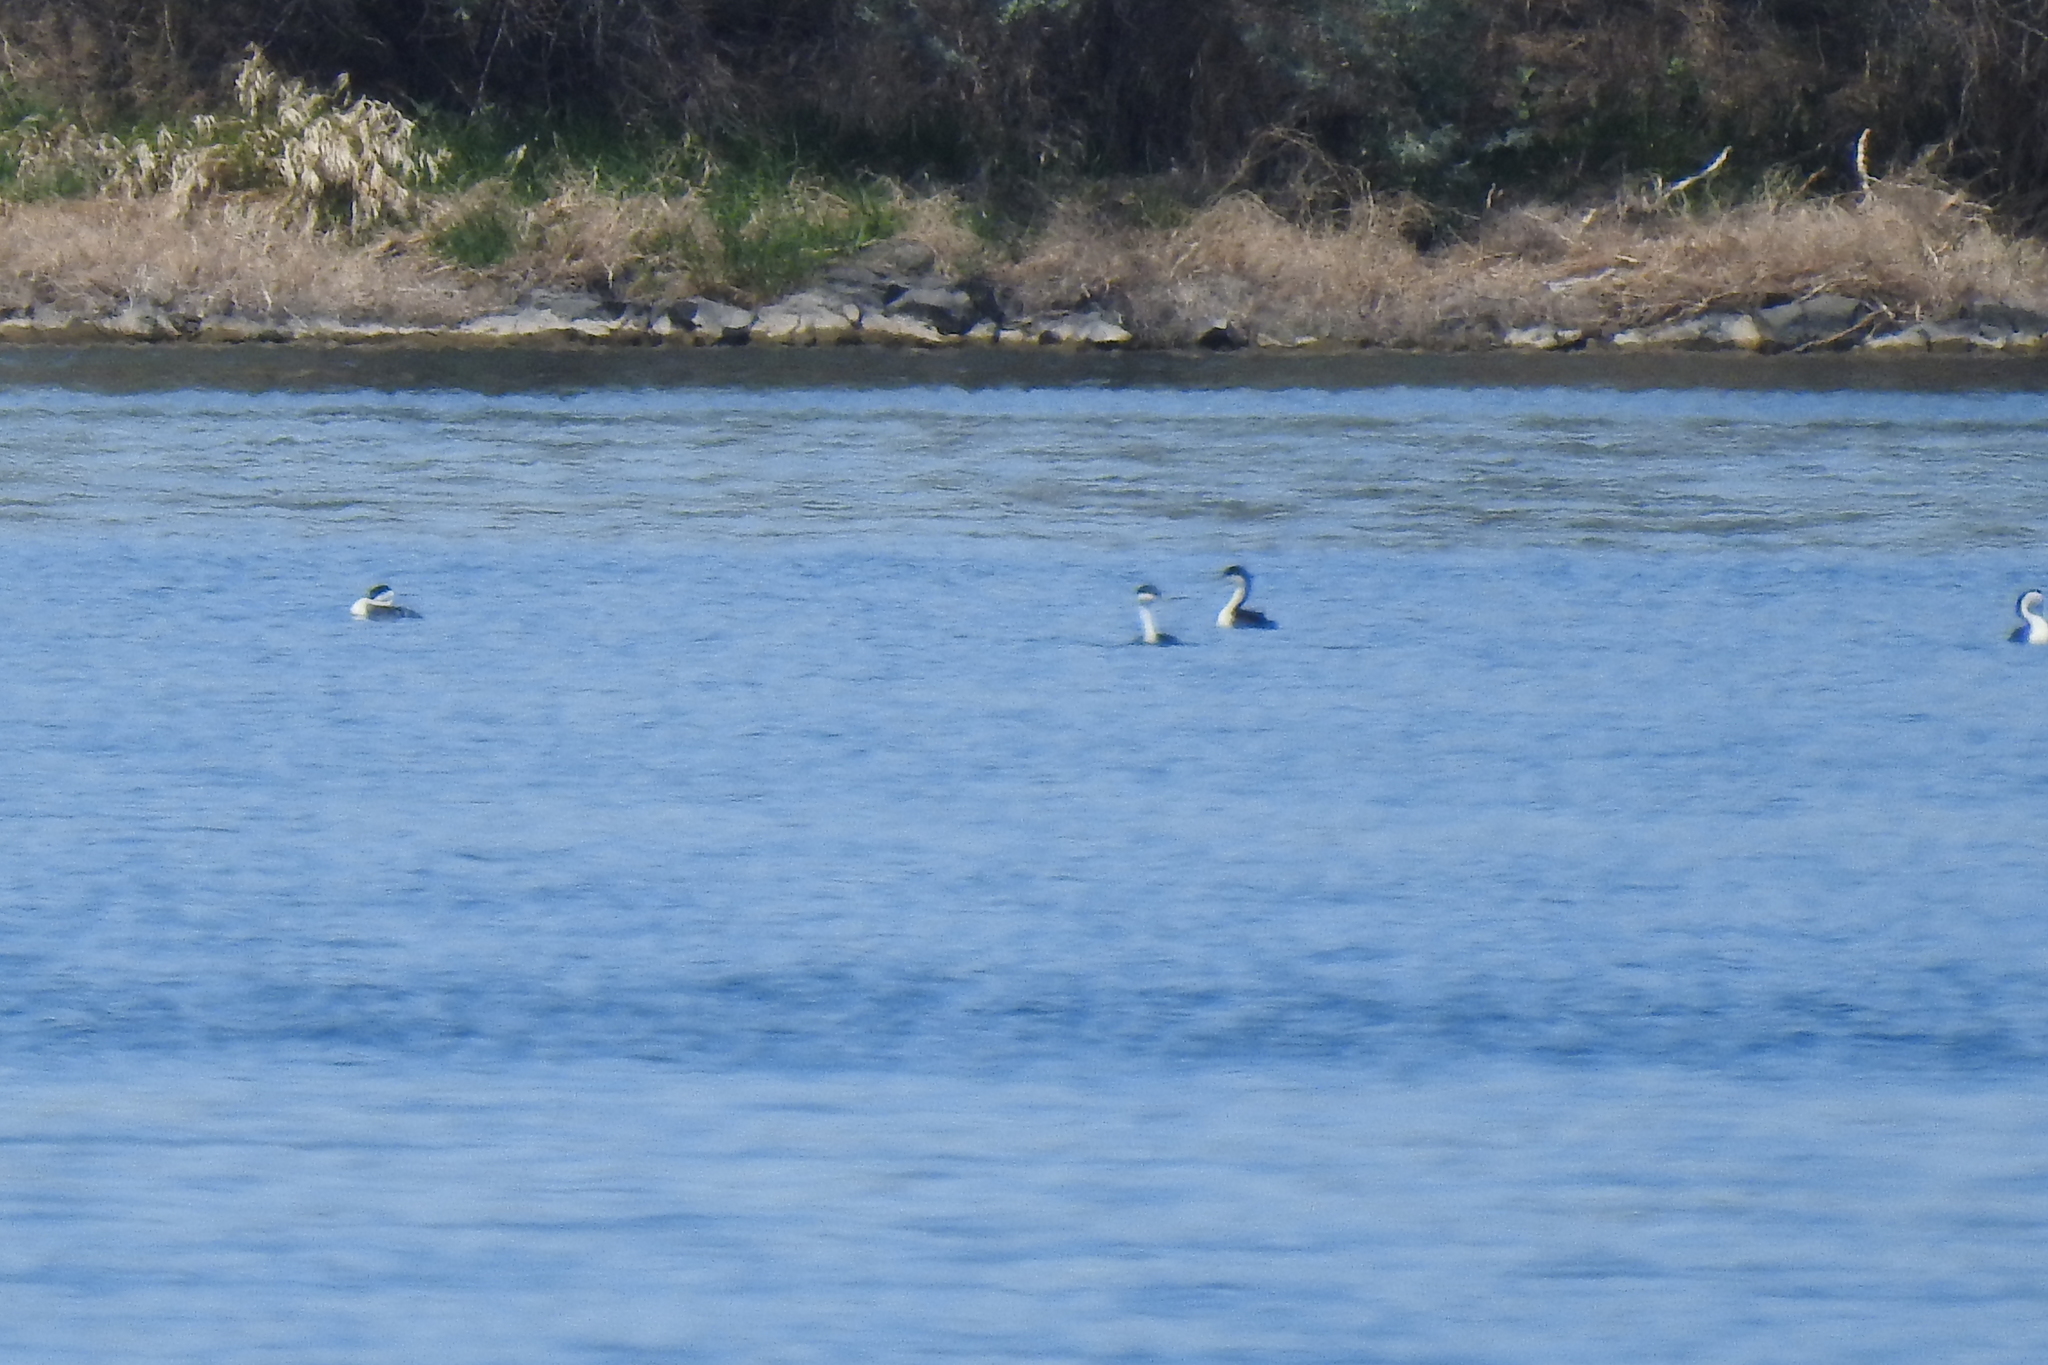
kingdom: Animalia
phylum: Chordata
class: Aves
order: Podicipediformes
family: Podicipedidae
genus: Aechmophorus
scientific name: Aechmophorus occidentalis
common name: Western grebe
